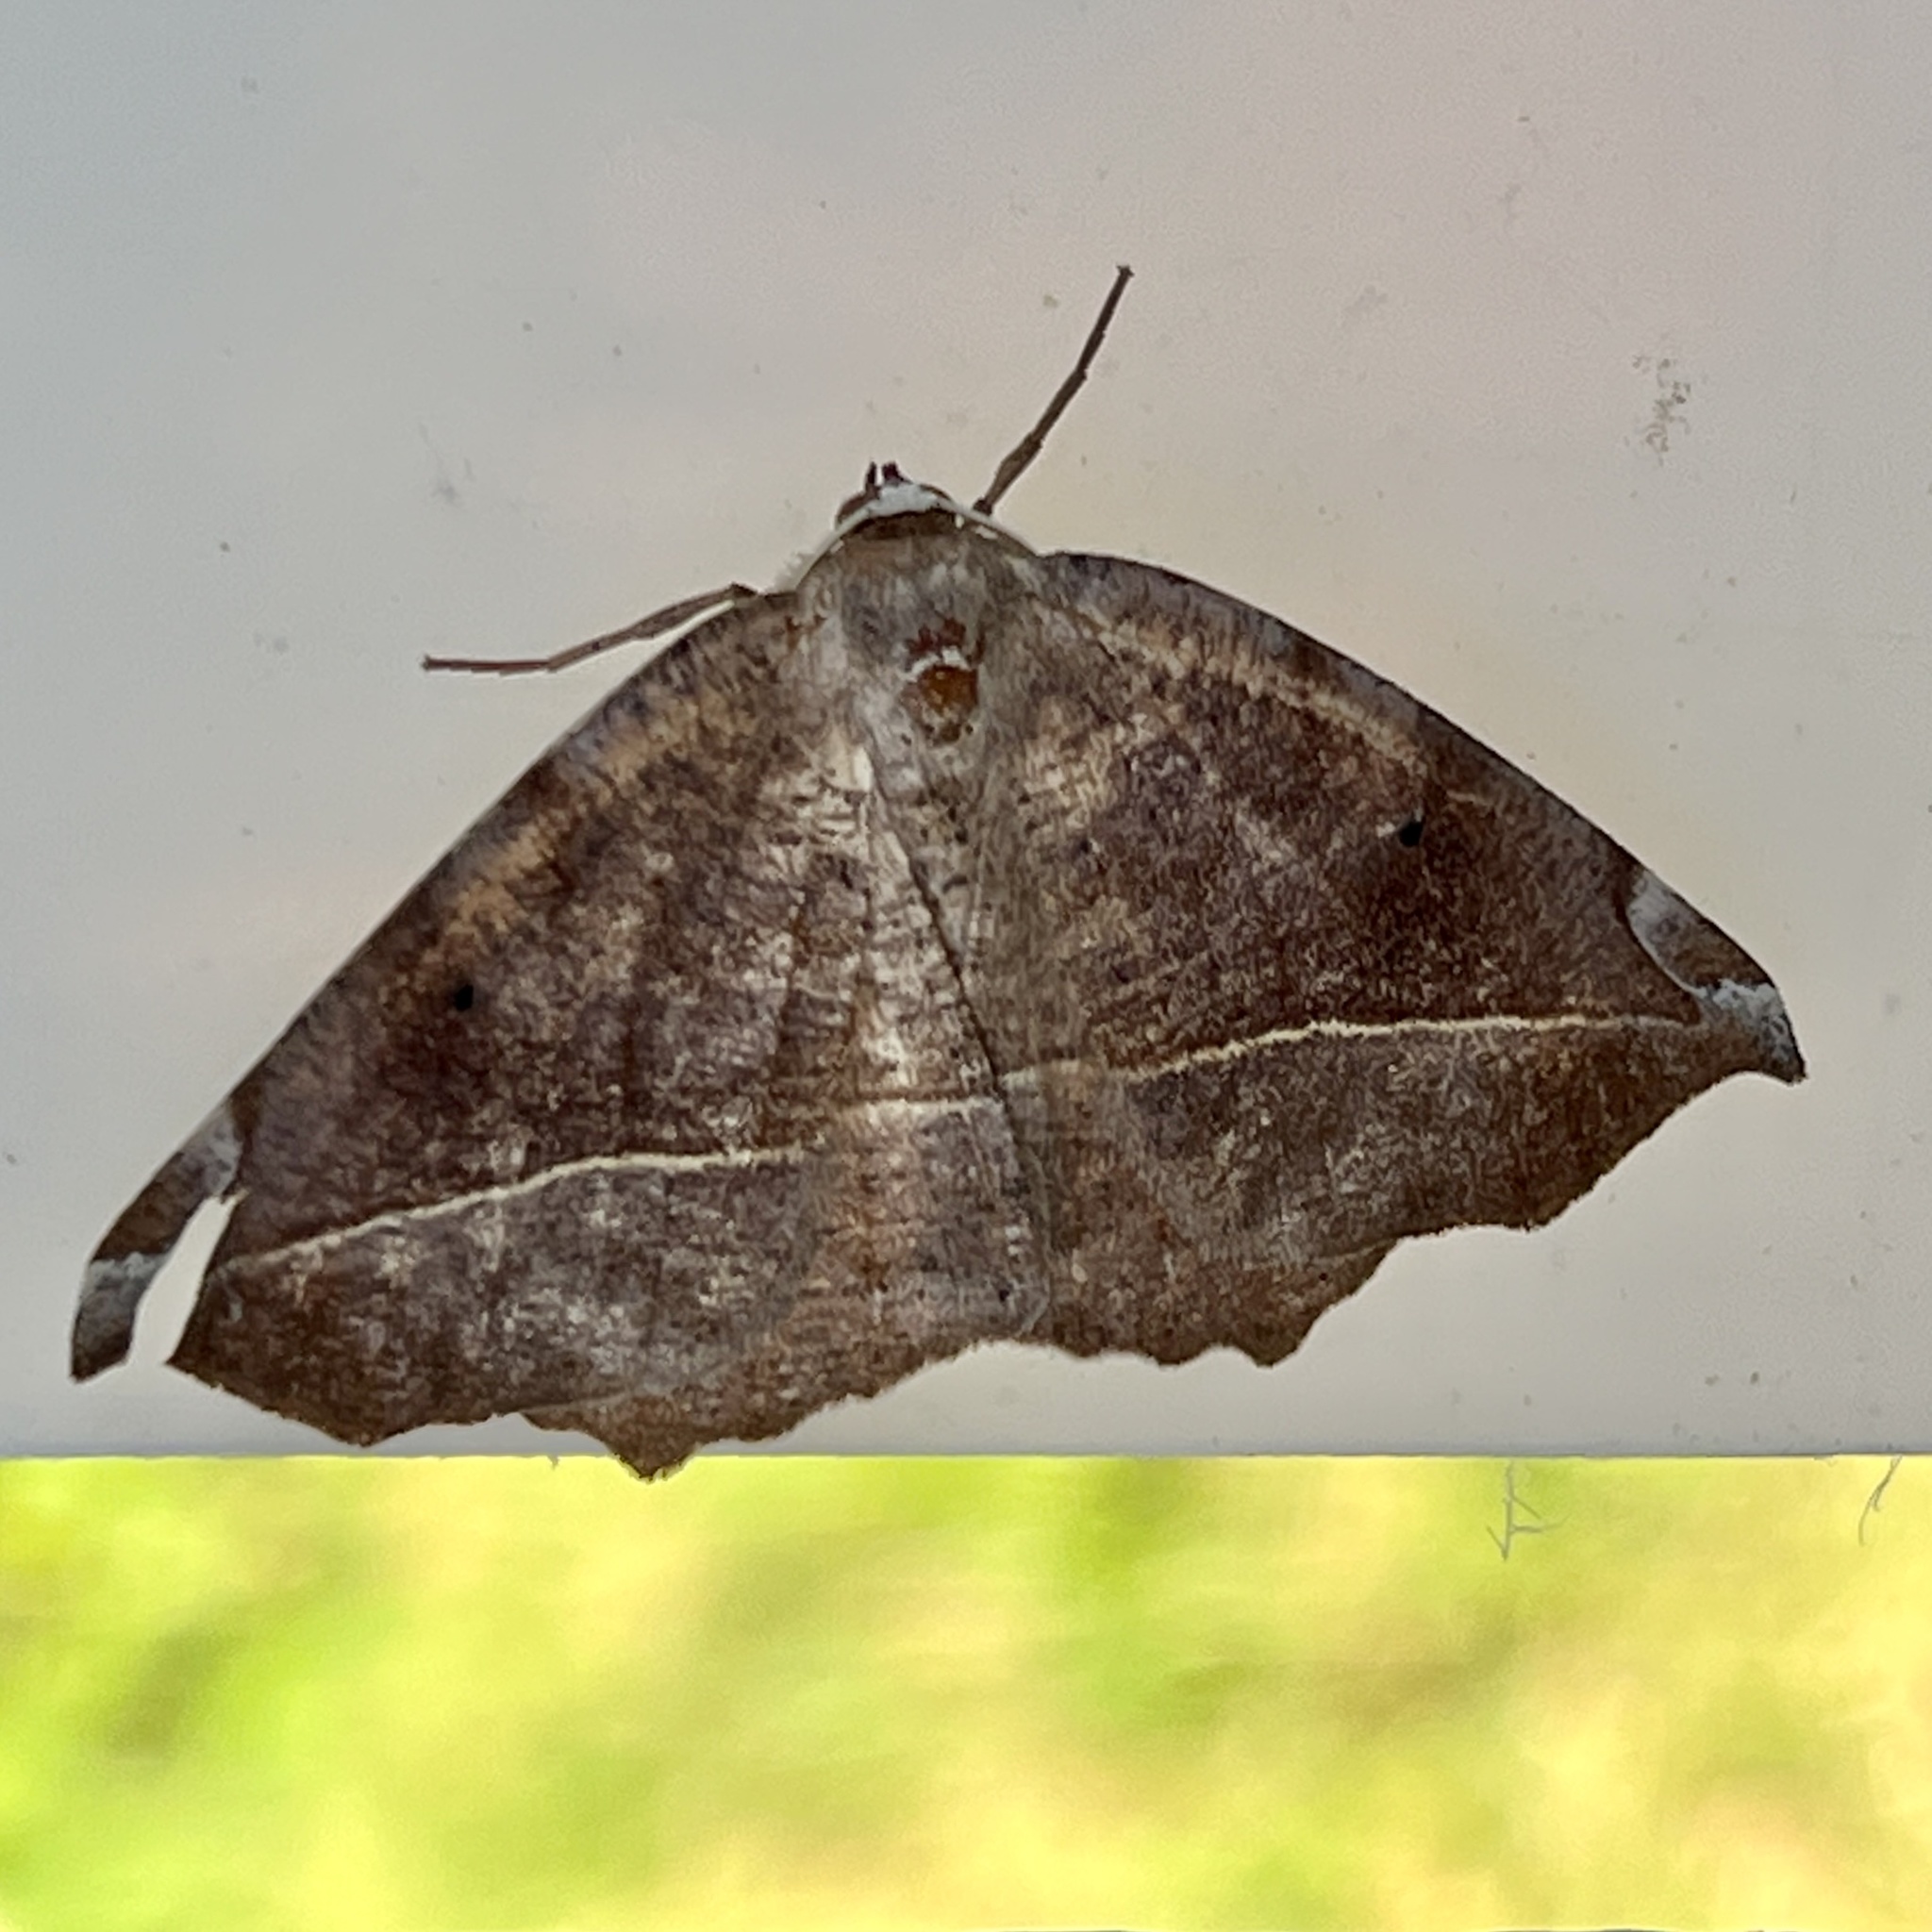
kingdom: Animalia
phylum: Arthropoda
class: Insecta
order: Lepidoptera
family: Geometridae
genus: Eutrapela
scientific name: Eutrapela clemataria
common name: Curved-toothed geometer
